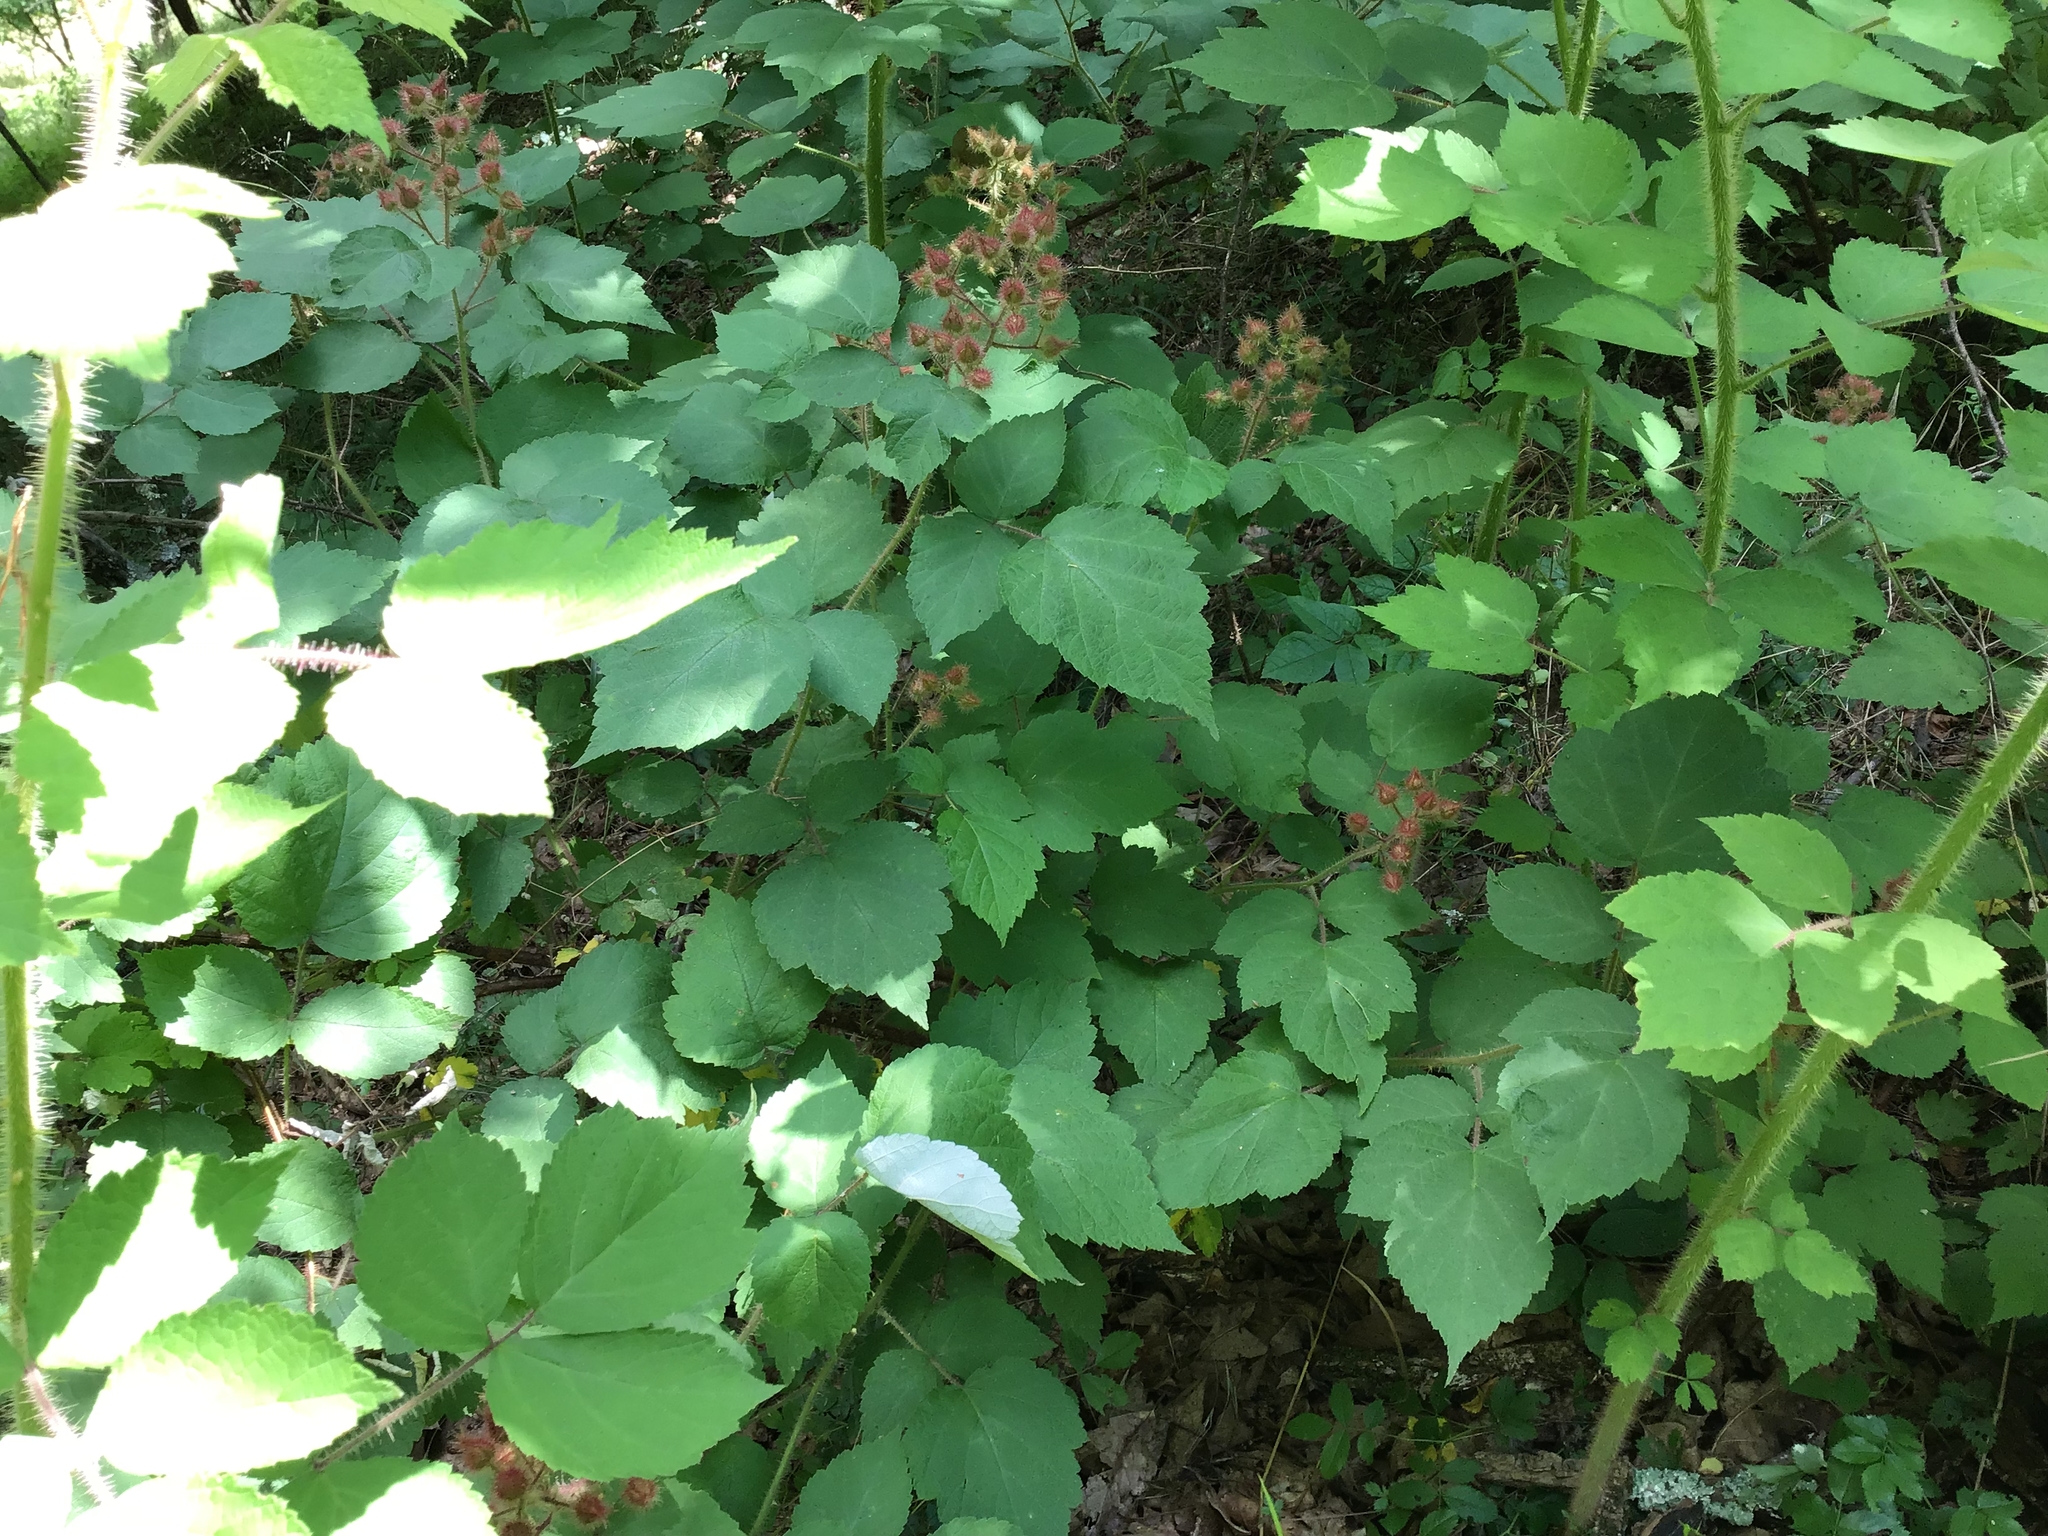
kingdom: Plantae
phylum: Tracheophyta
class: Magnoliopsida
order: Rosales
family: Rosaceae
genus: Rubus
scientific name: Rubus phoenicolasius
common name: Japanese wineberry
